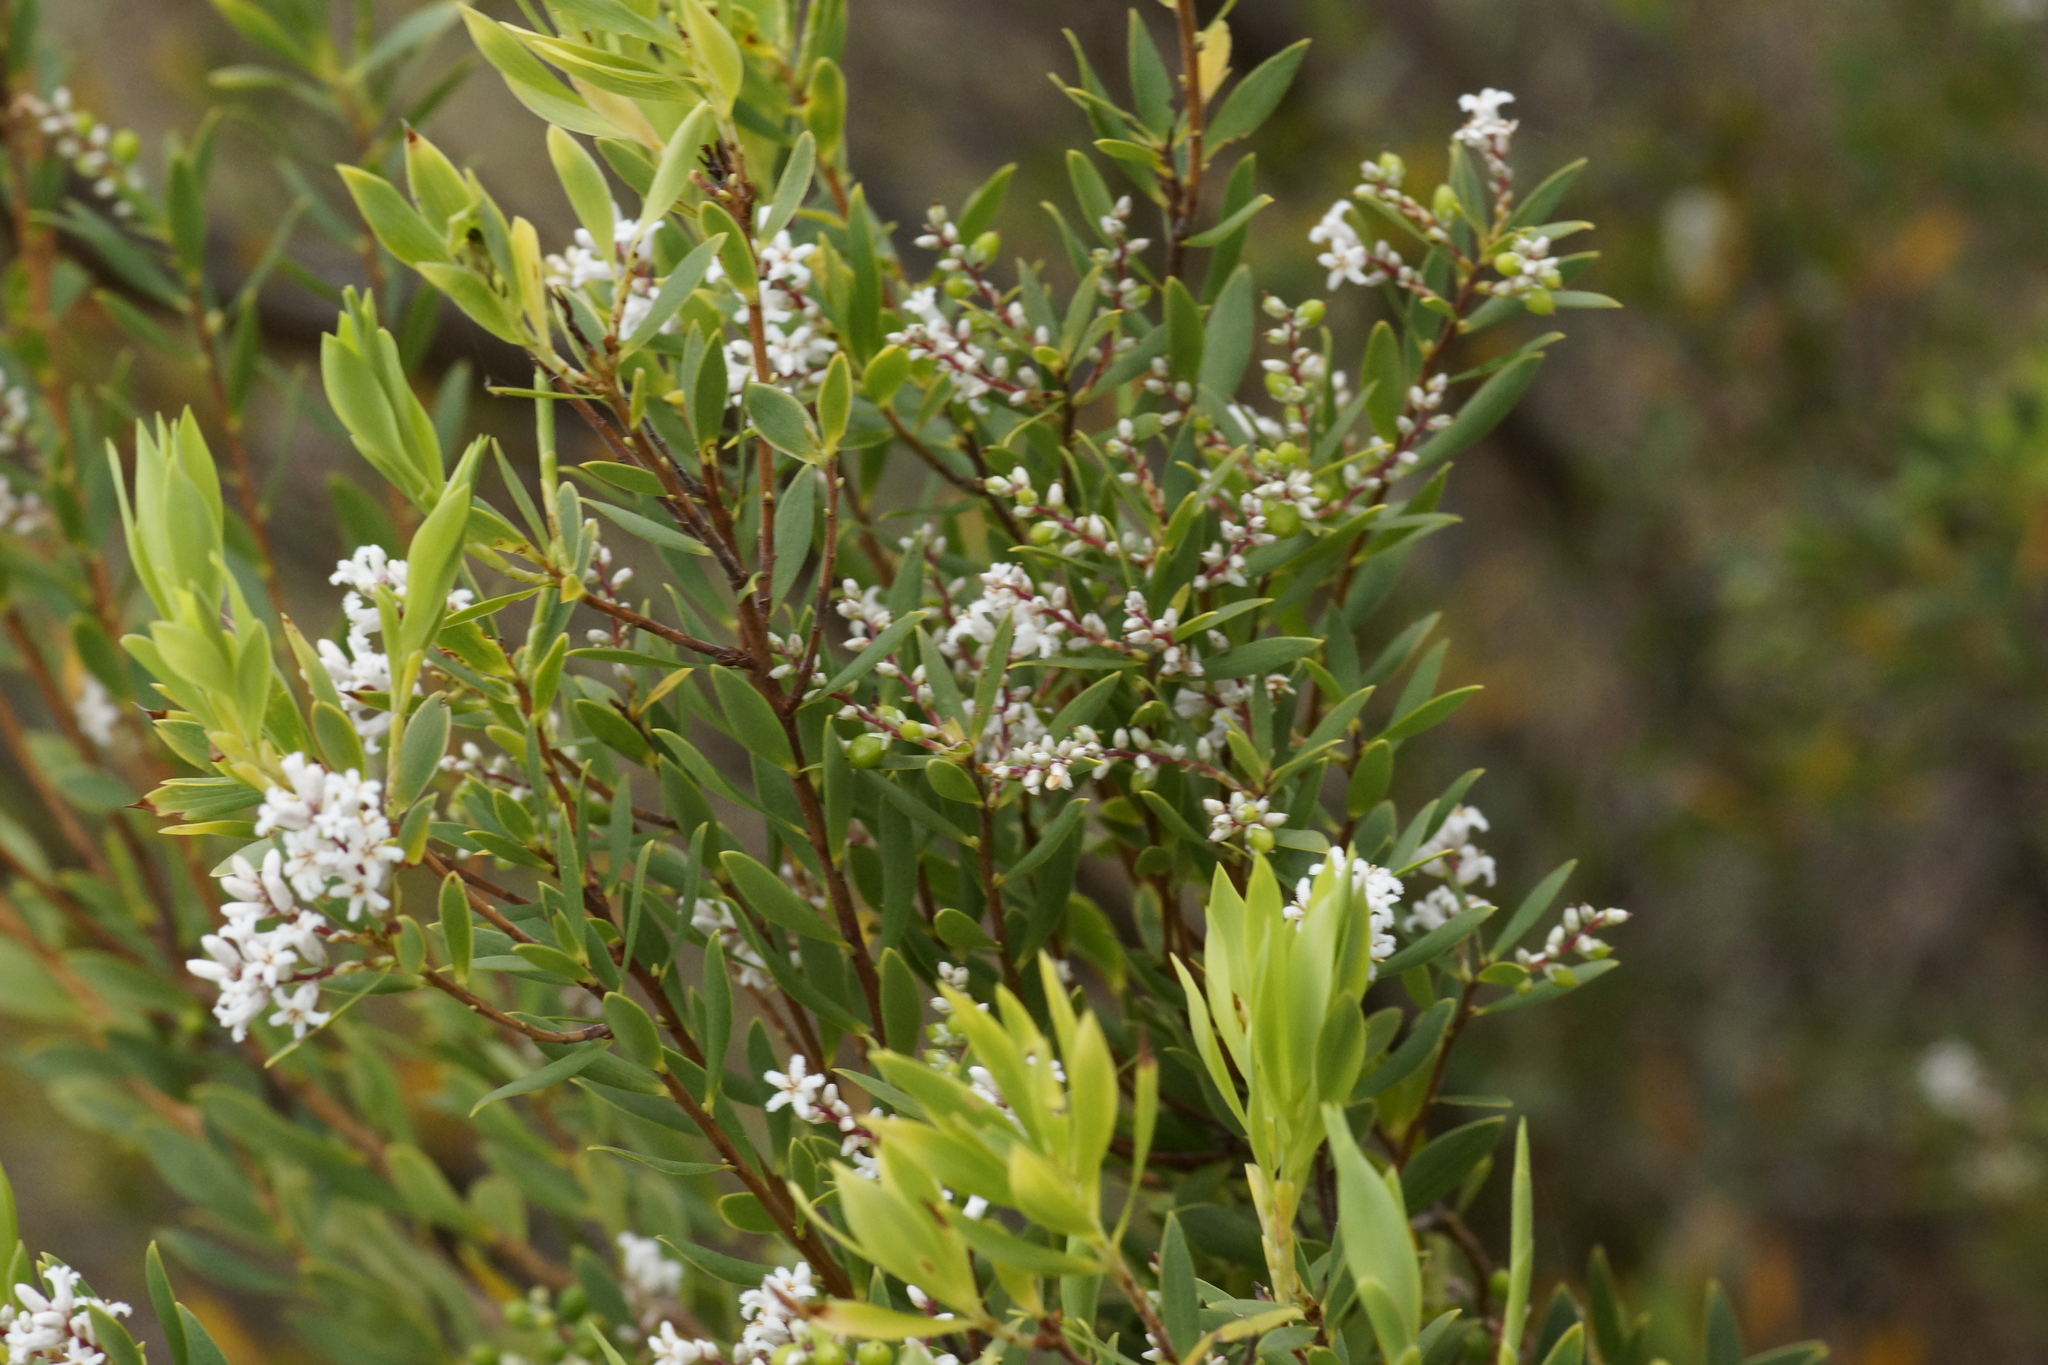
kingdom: Plantae
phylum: Tracheophyta
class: Magnoliopsida
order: Ericales
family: Ericaceae
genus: Leptecophylla
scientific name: Leptecophylla parvifolia
